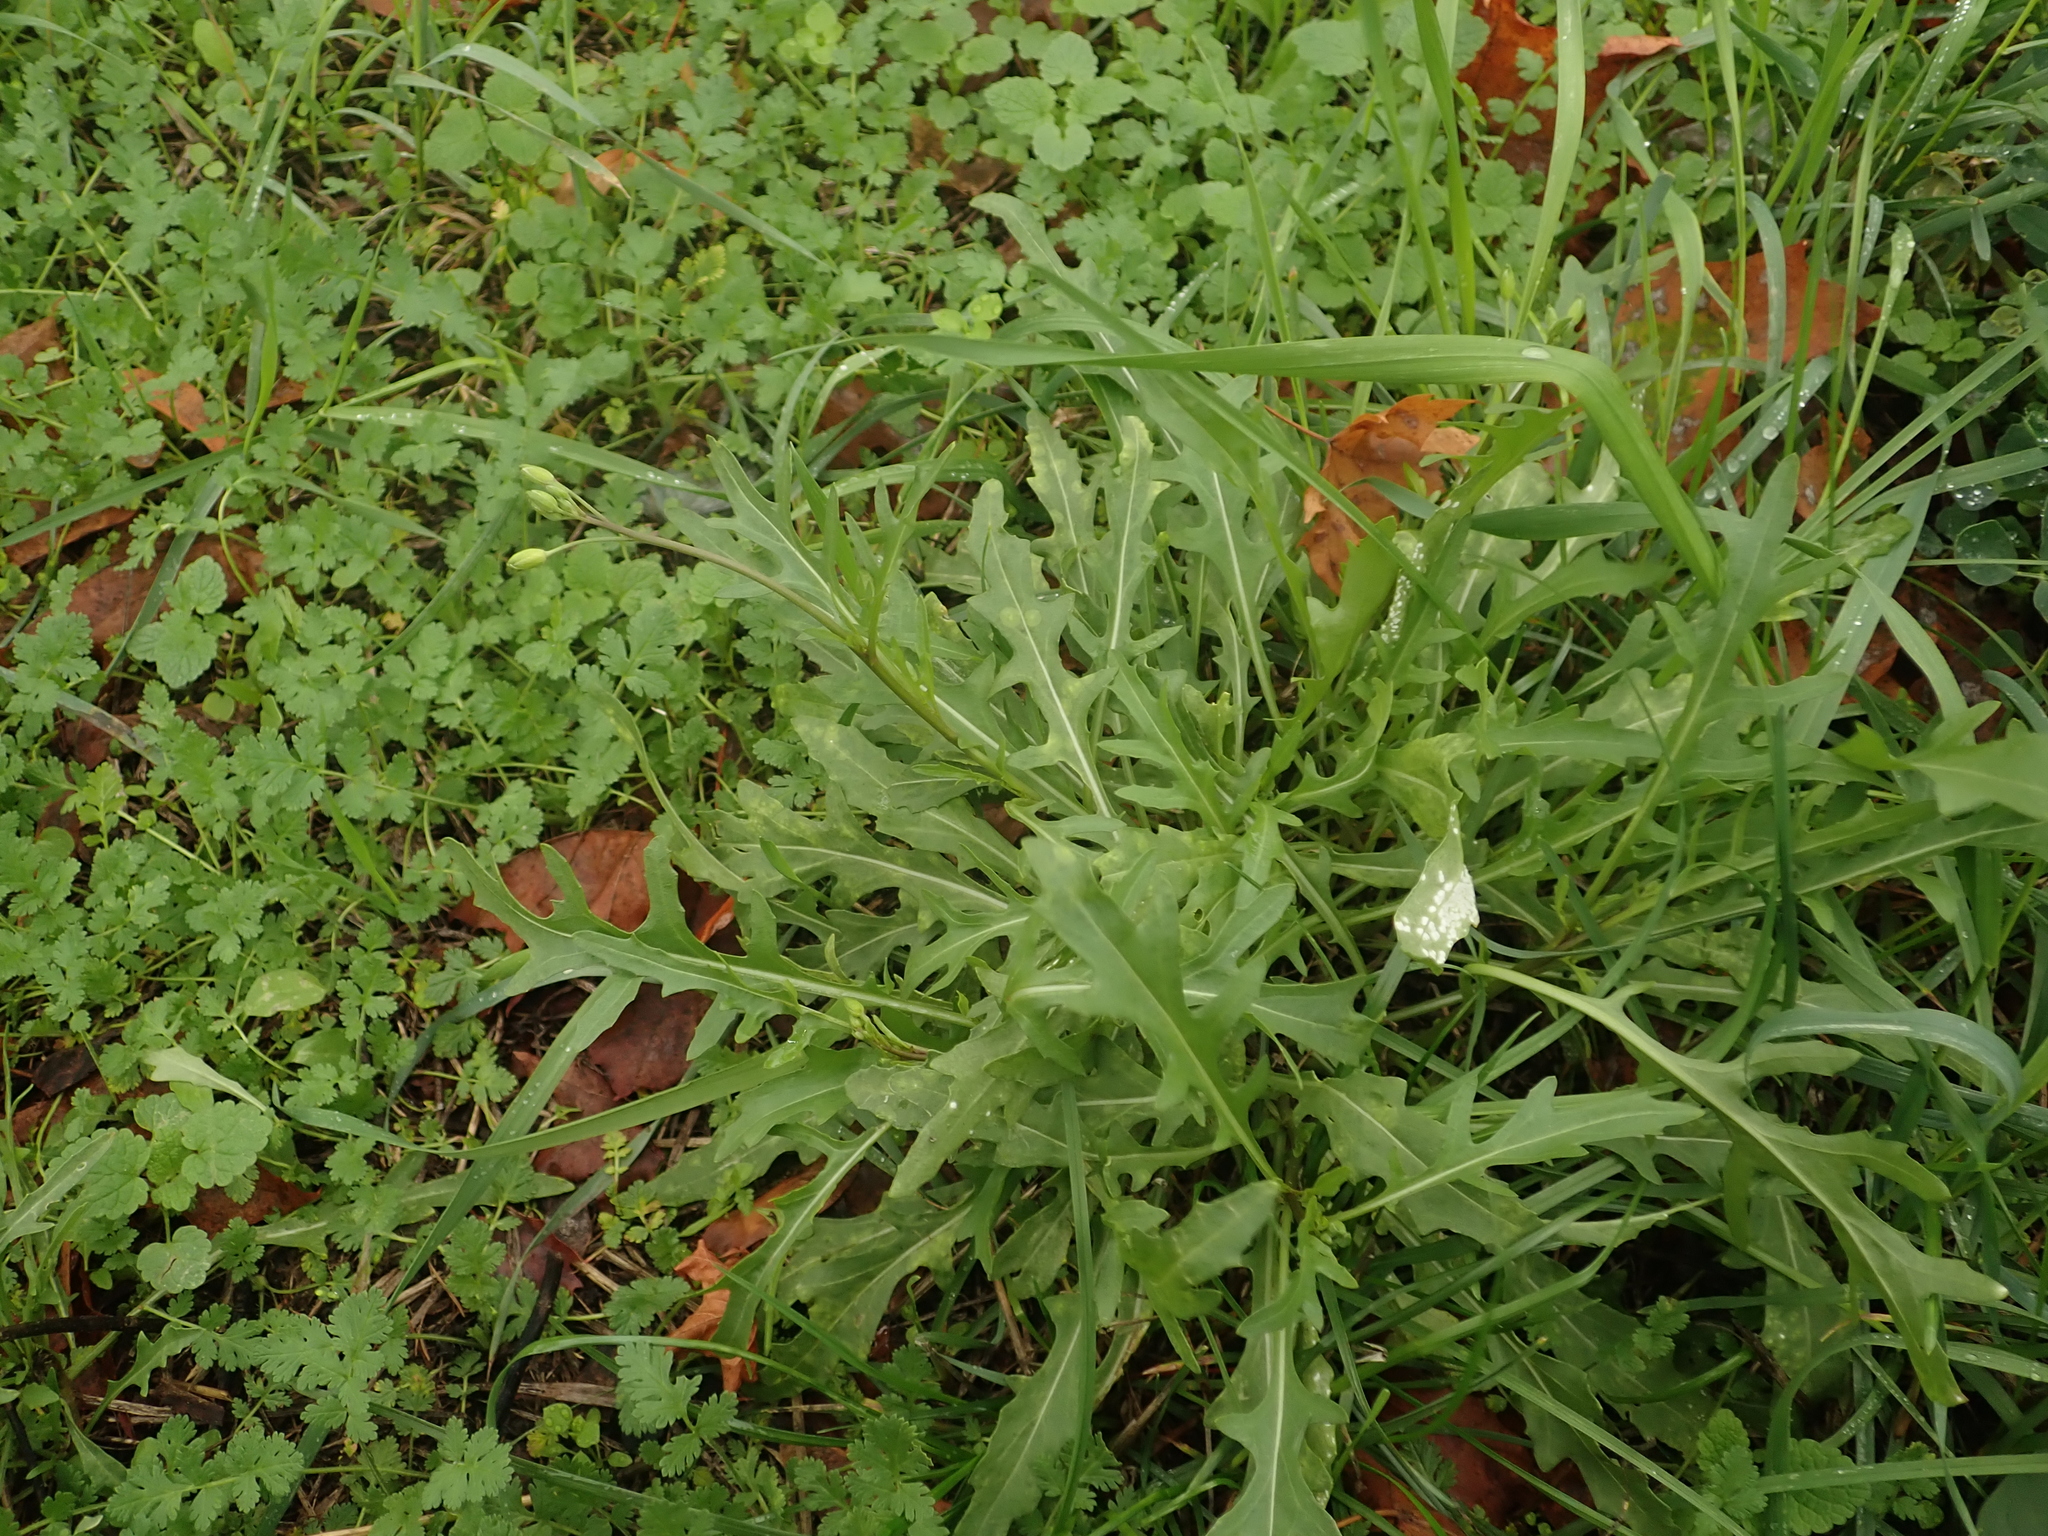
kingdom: Plantae
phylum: Tracheophyta
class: Magnoliopsida
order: Brassicales
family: Brassicaceae
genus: Diplotaxis
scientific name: Diplotaxis tenuifolia
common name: Perennial wall-rocket
